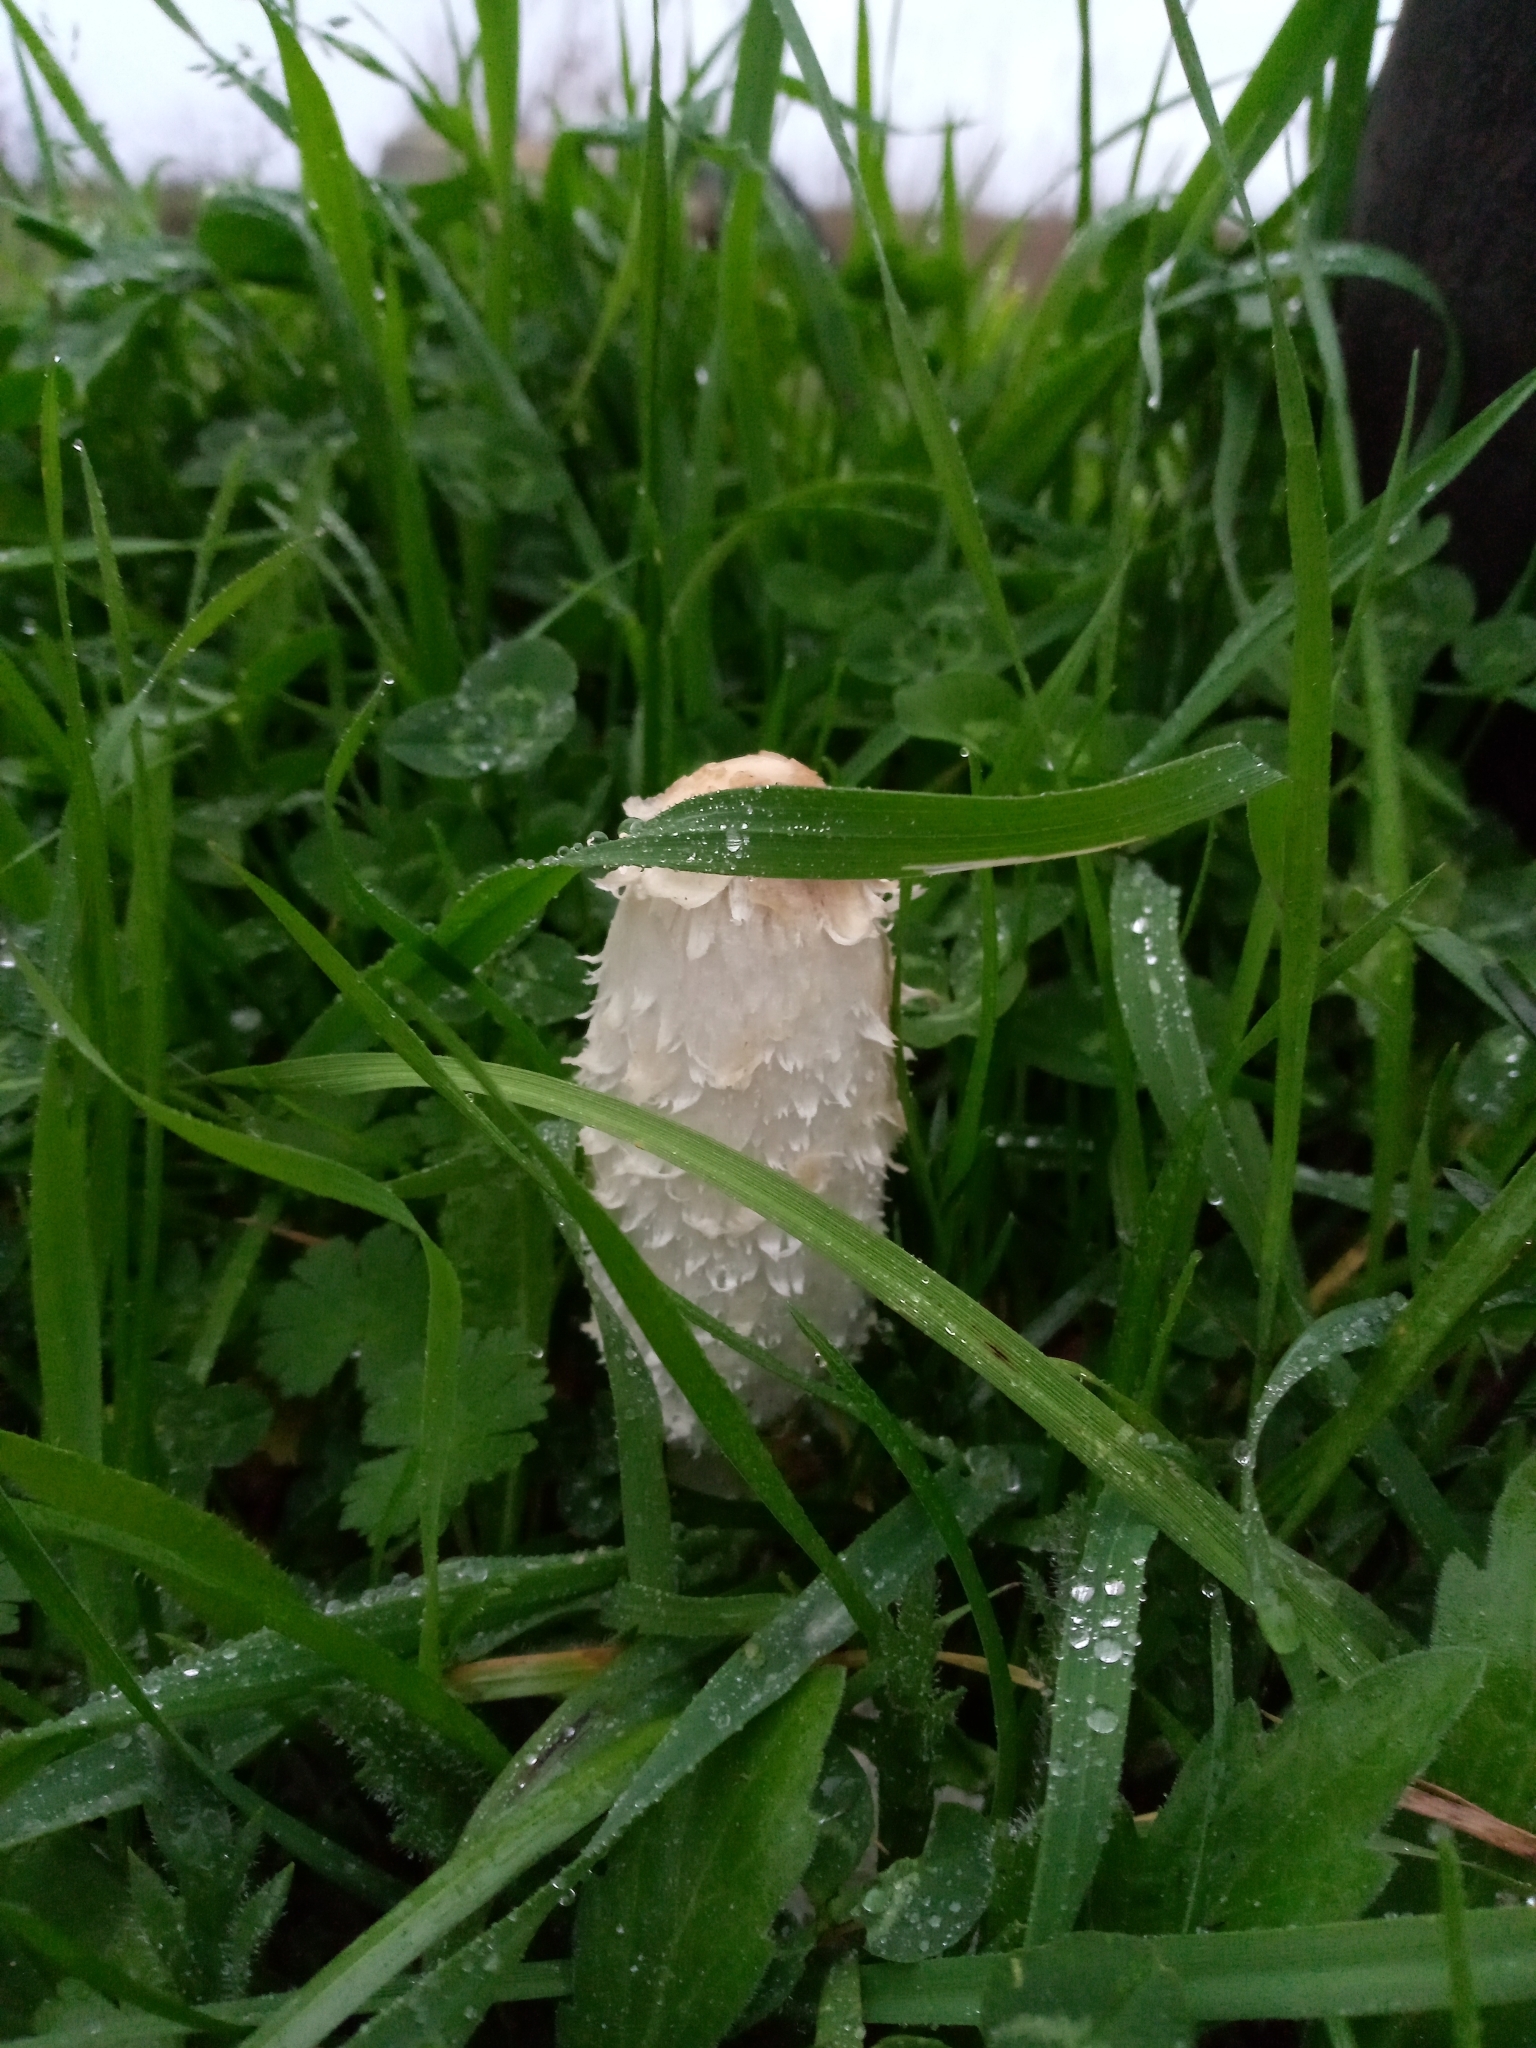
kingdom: Fungi
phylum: Basidiomycota
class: Agaricomycetes
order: Agaricales
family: Agaricaceae
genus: Coprinus
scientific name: Coprinus comatus
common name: Lawyer's wig
